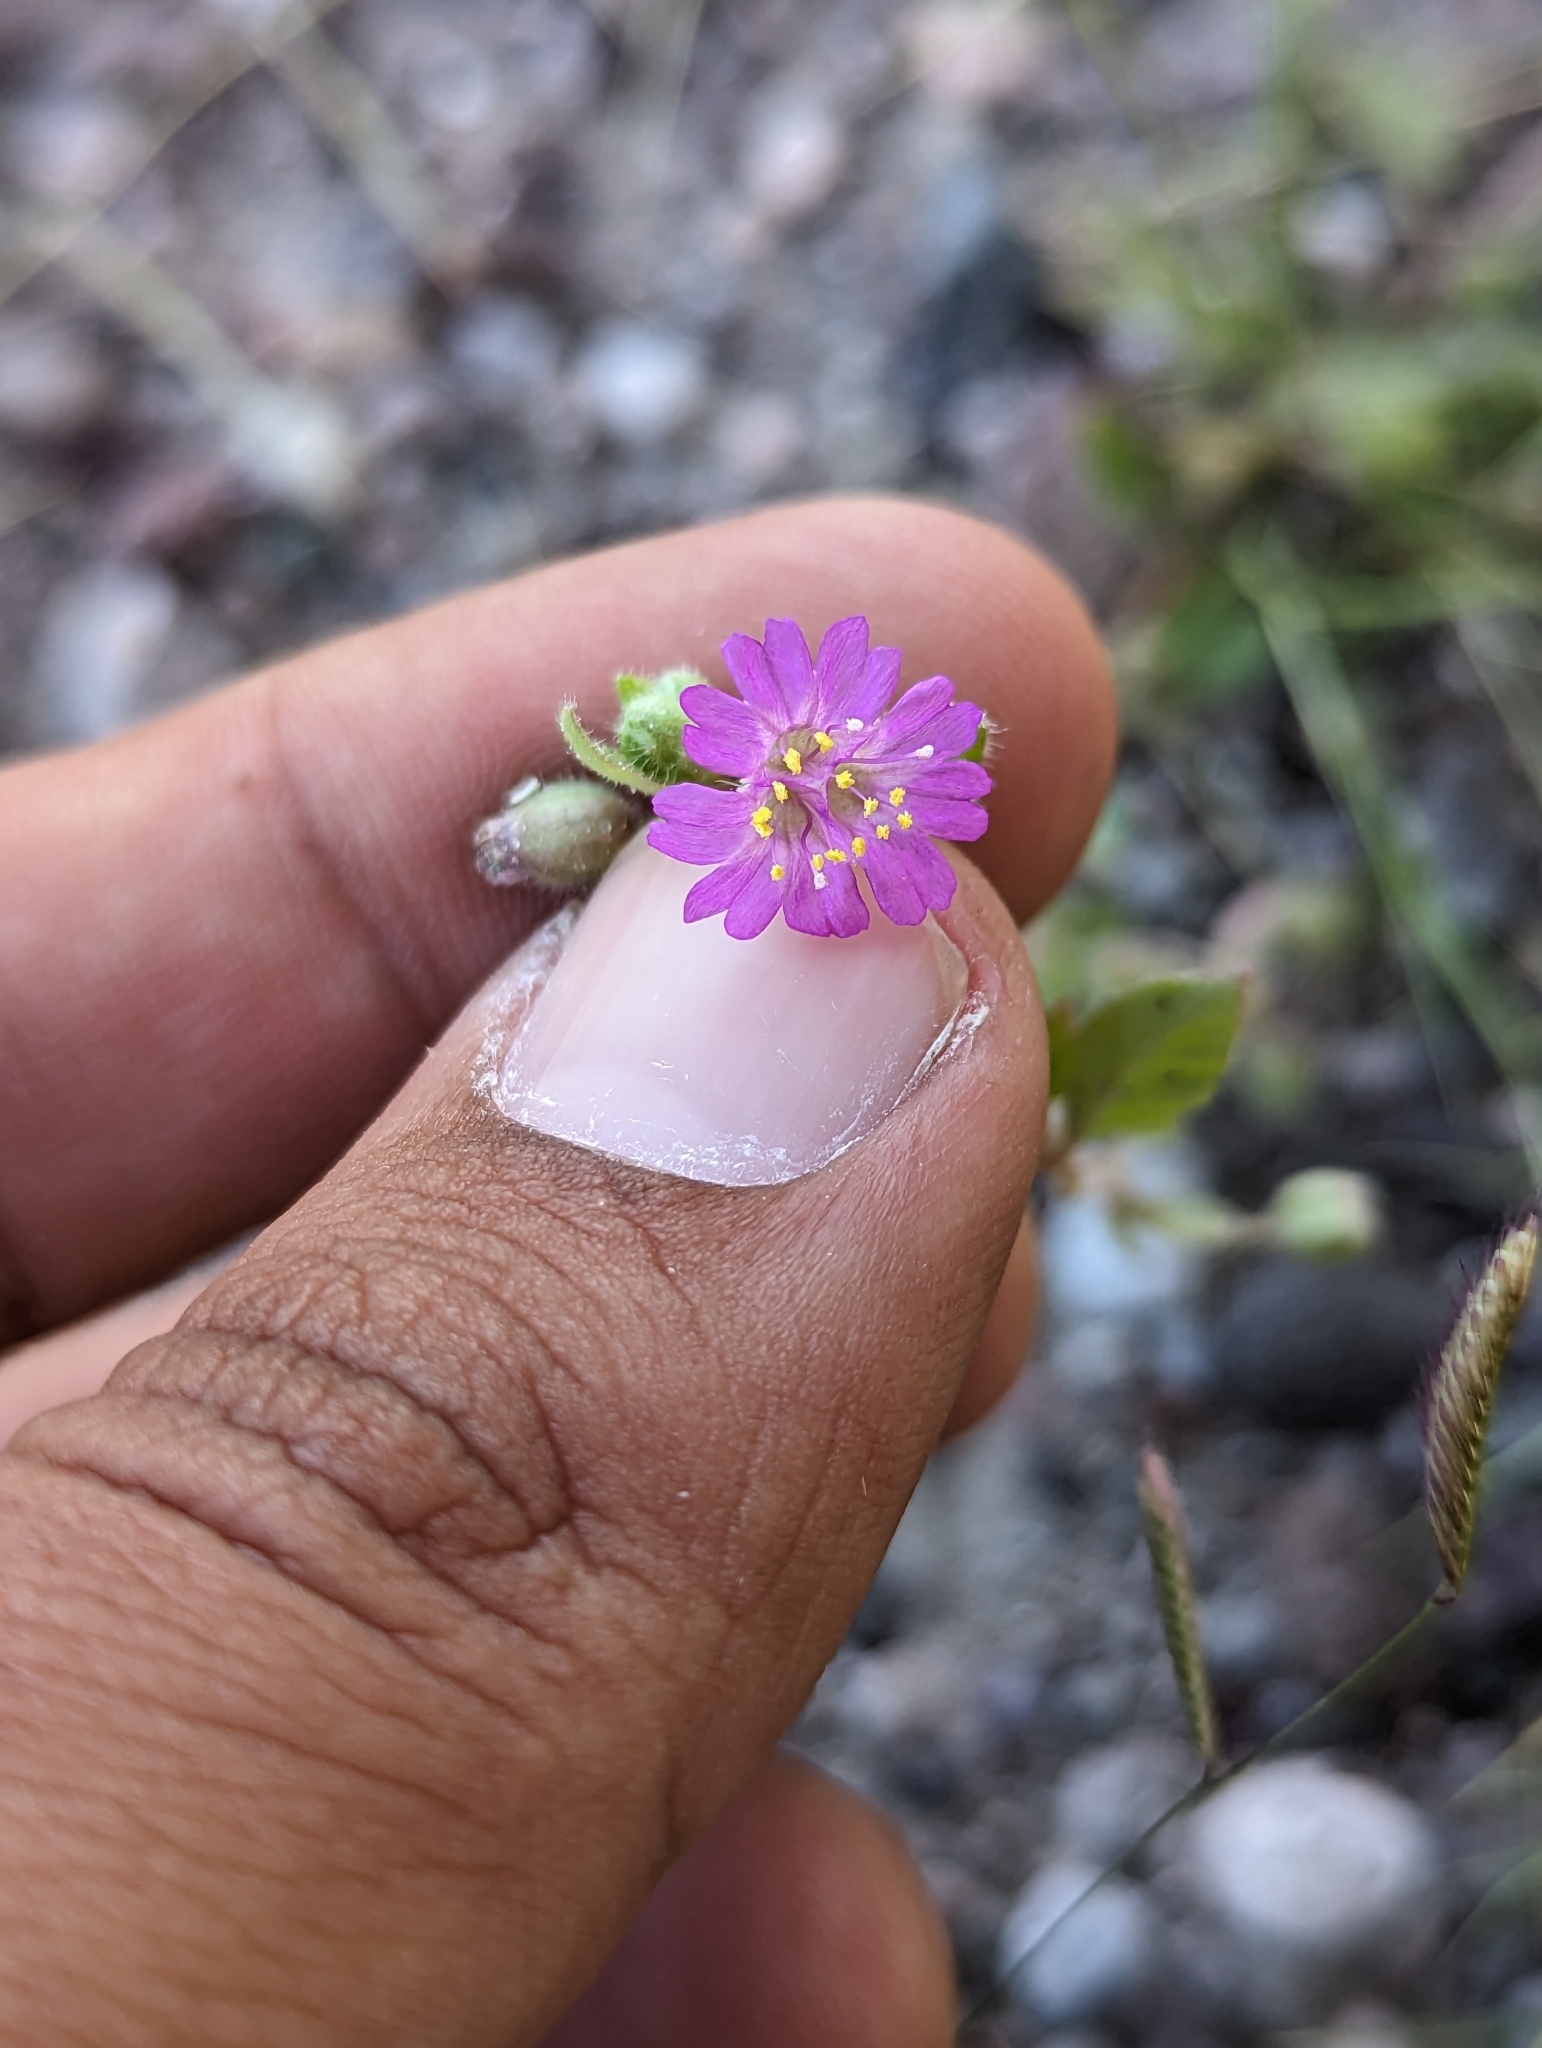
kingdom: Plantae
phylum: Tracheophyta
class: Magnoliopsida
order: Caryophyllales
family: Nyctaginaceae
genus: Allionia
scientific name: Allionia incarnata
